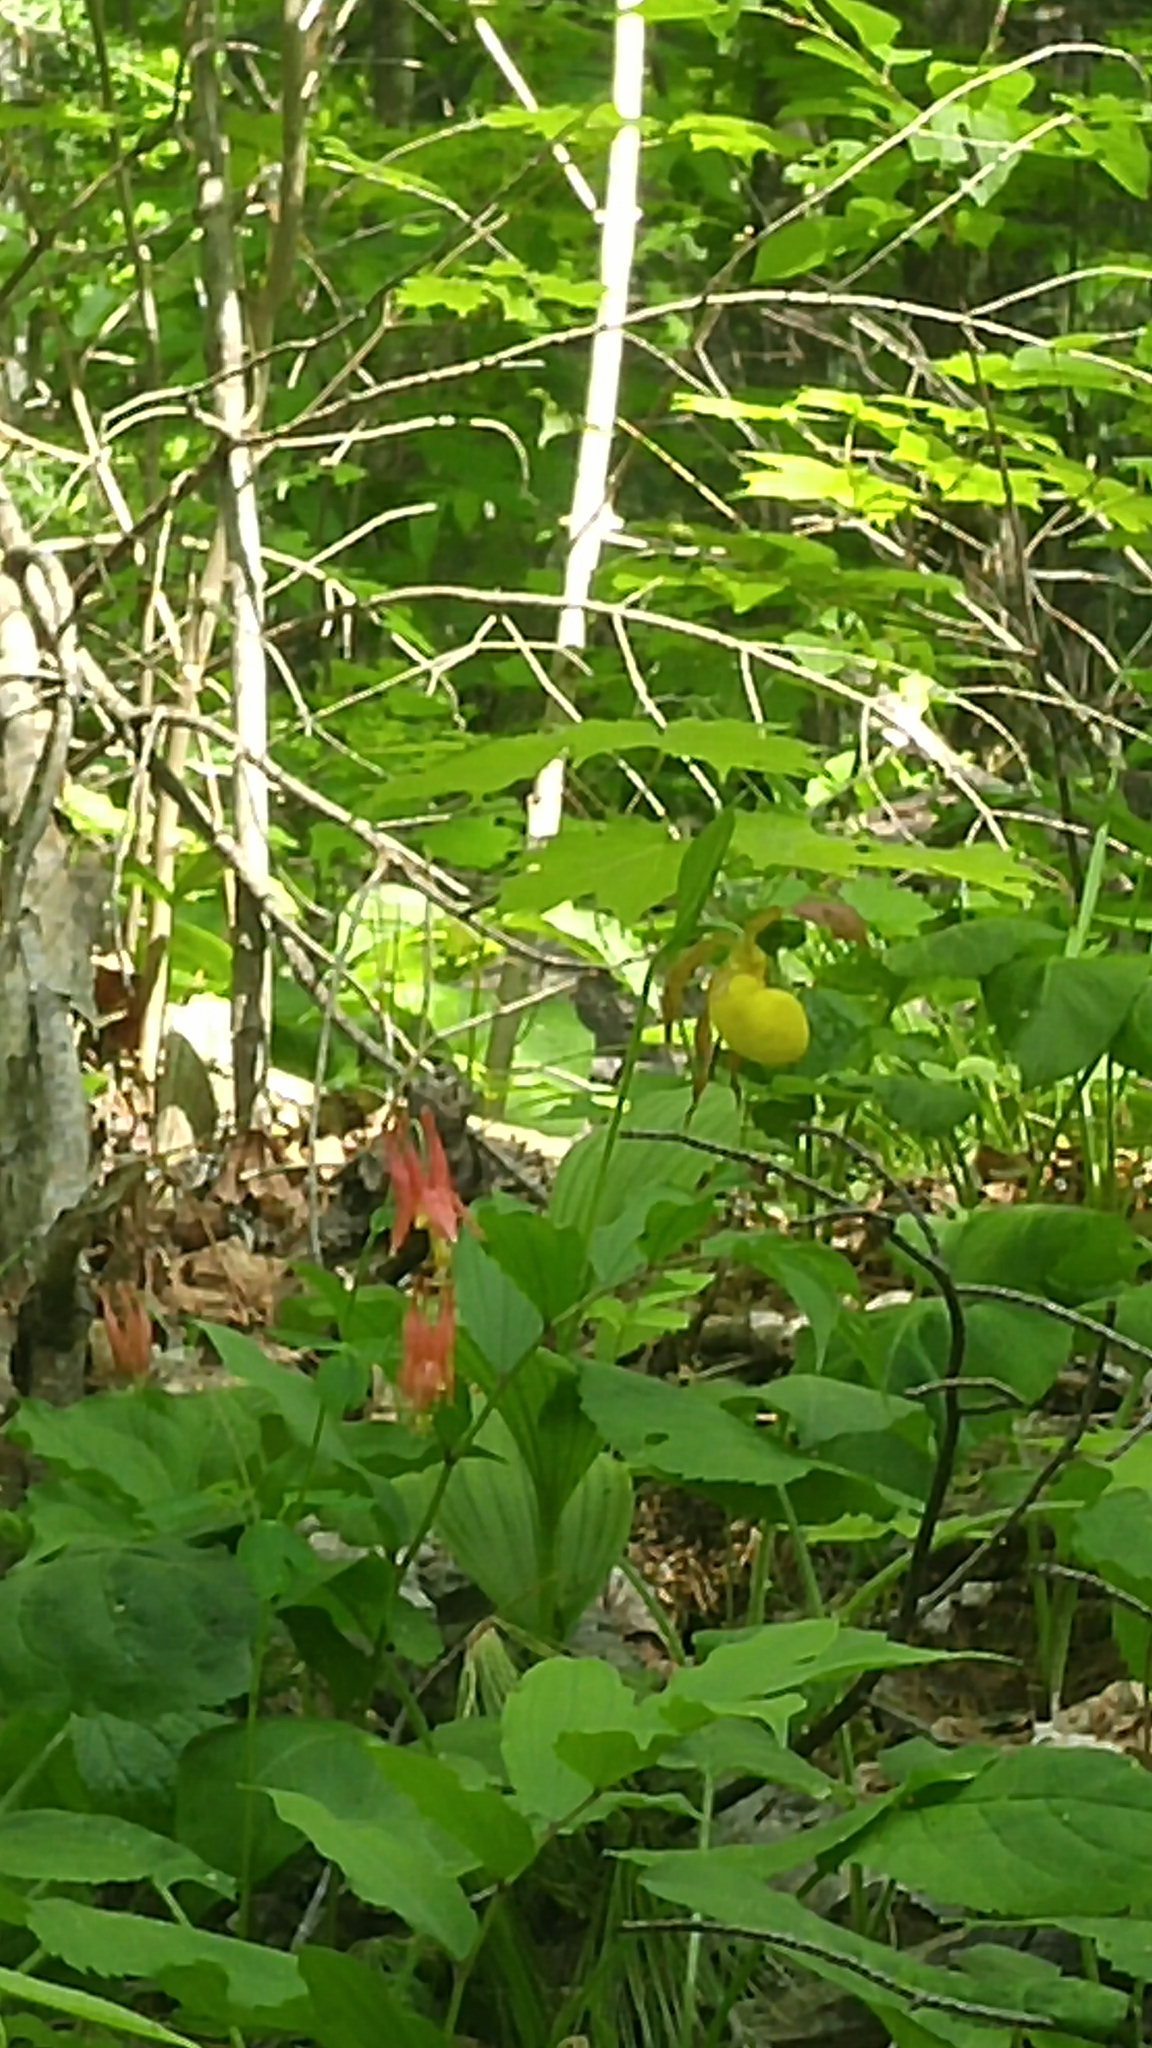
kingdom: Plantae
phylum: Tracheophyta
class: Liliopsida
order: Asparagales
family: Orchidaceae
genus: Cypripedium
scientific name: Cypripedium parviflorum
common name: American yellow lady's-slipper
